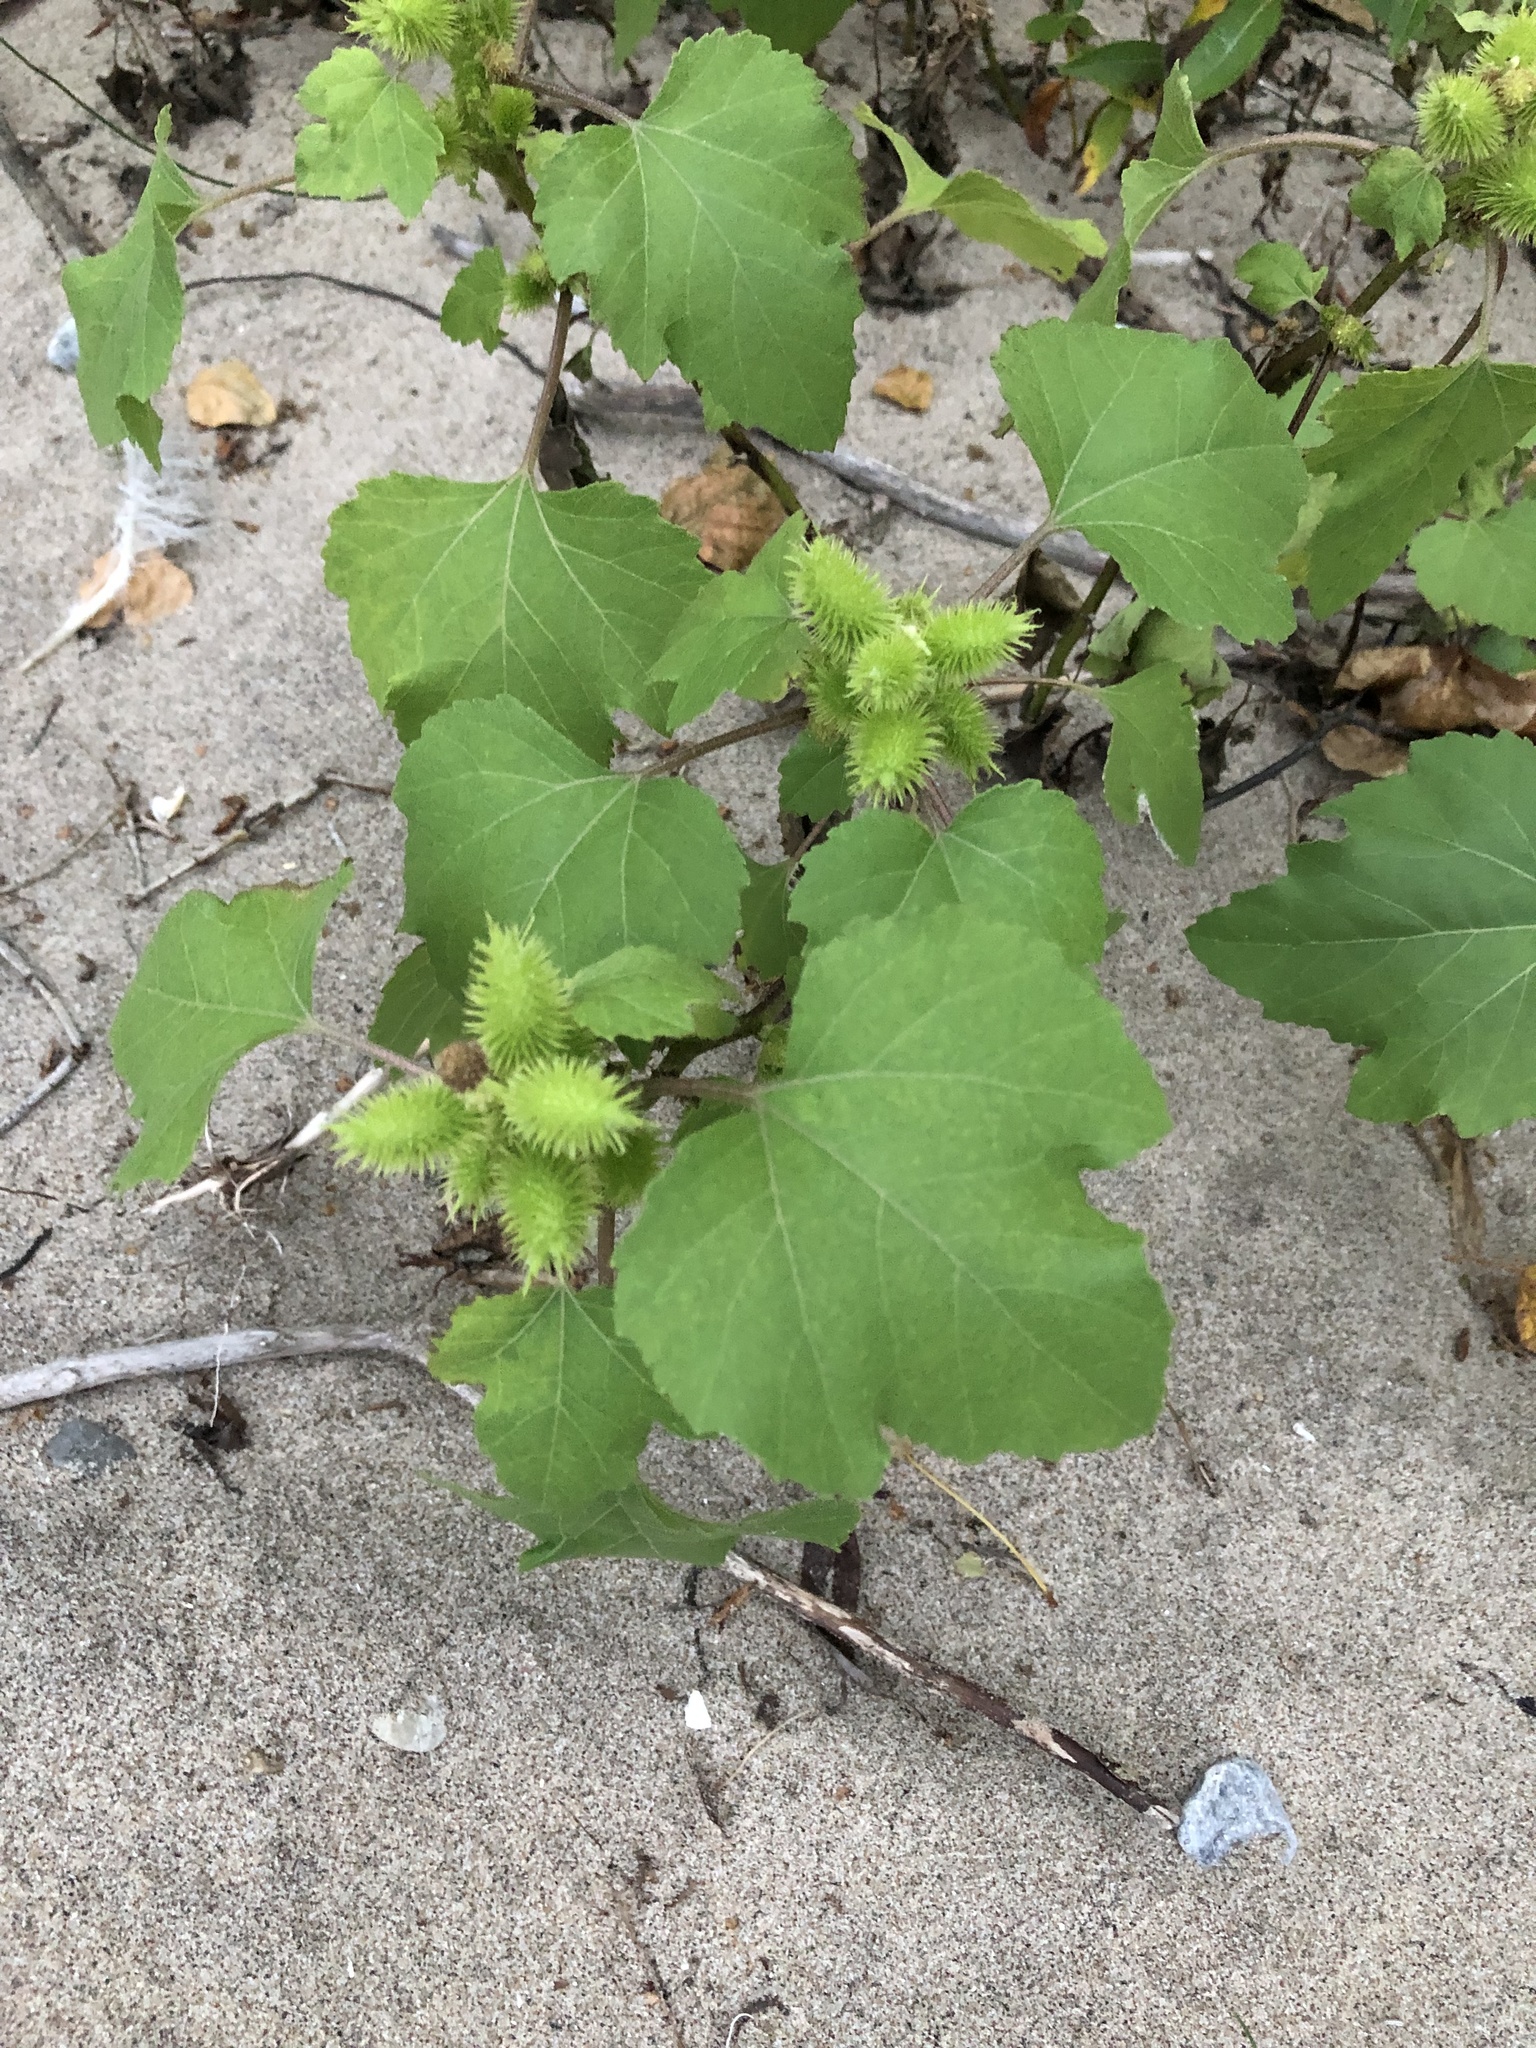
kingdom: Plantae
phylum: Tracheophyta
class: Magnoliopsida
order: Asterales
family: Asteraceae
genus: Xanthium
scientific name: Xanthium strumarium
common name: Rough cocklebur
